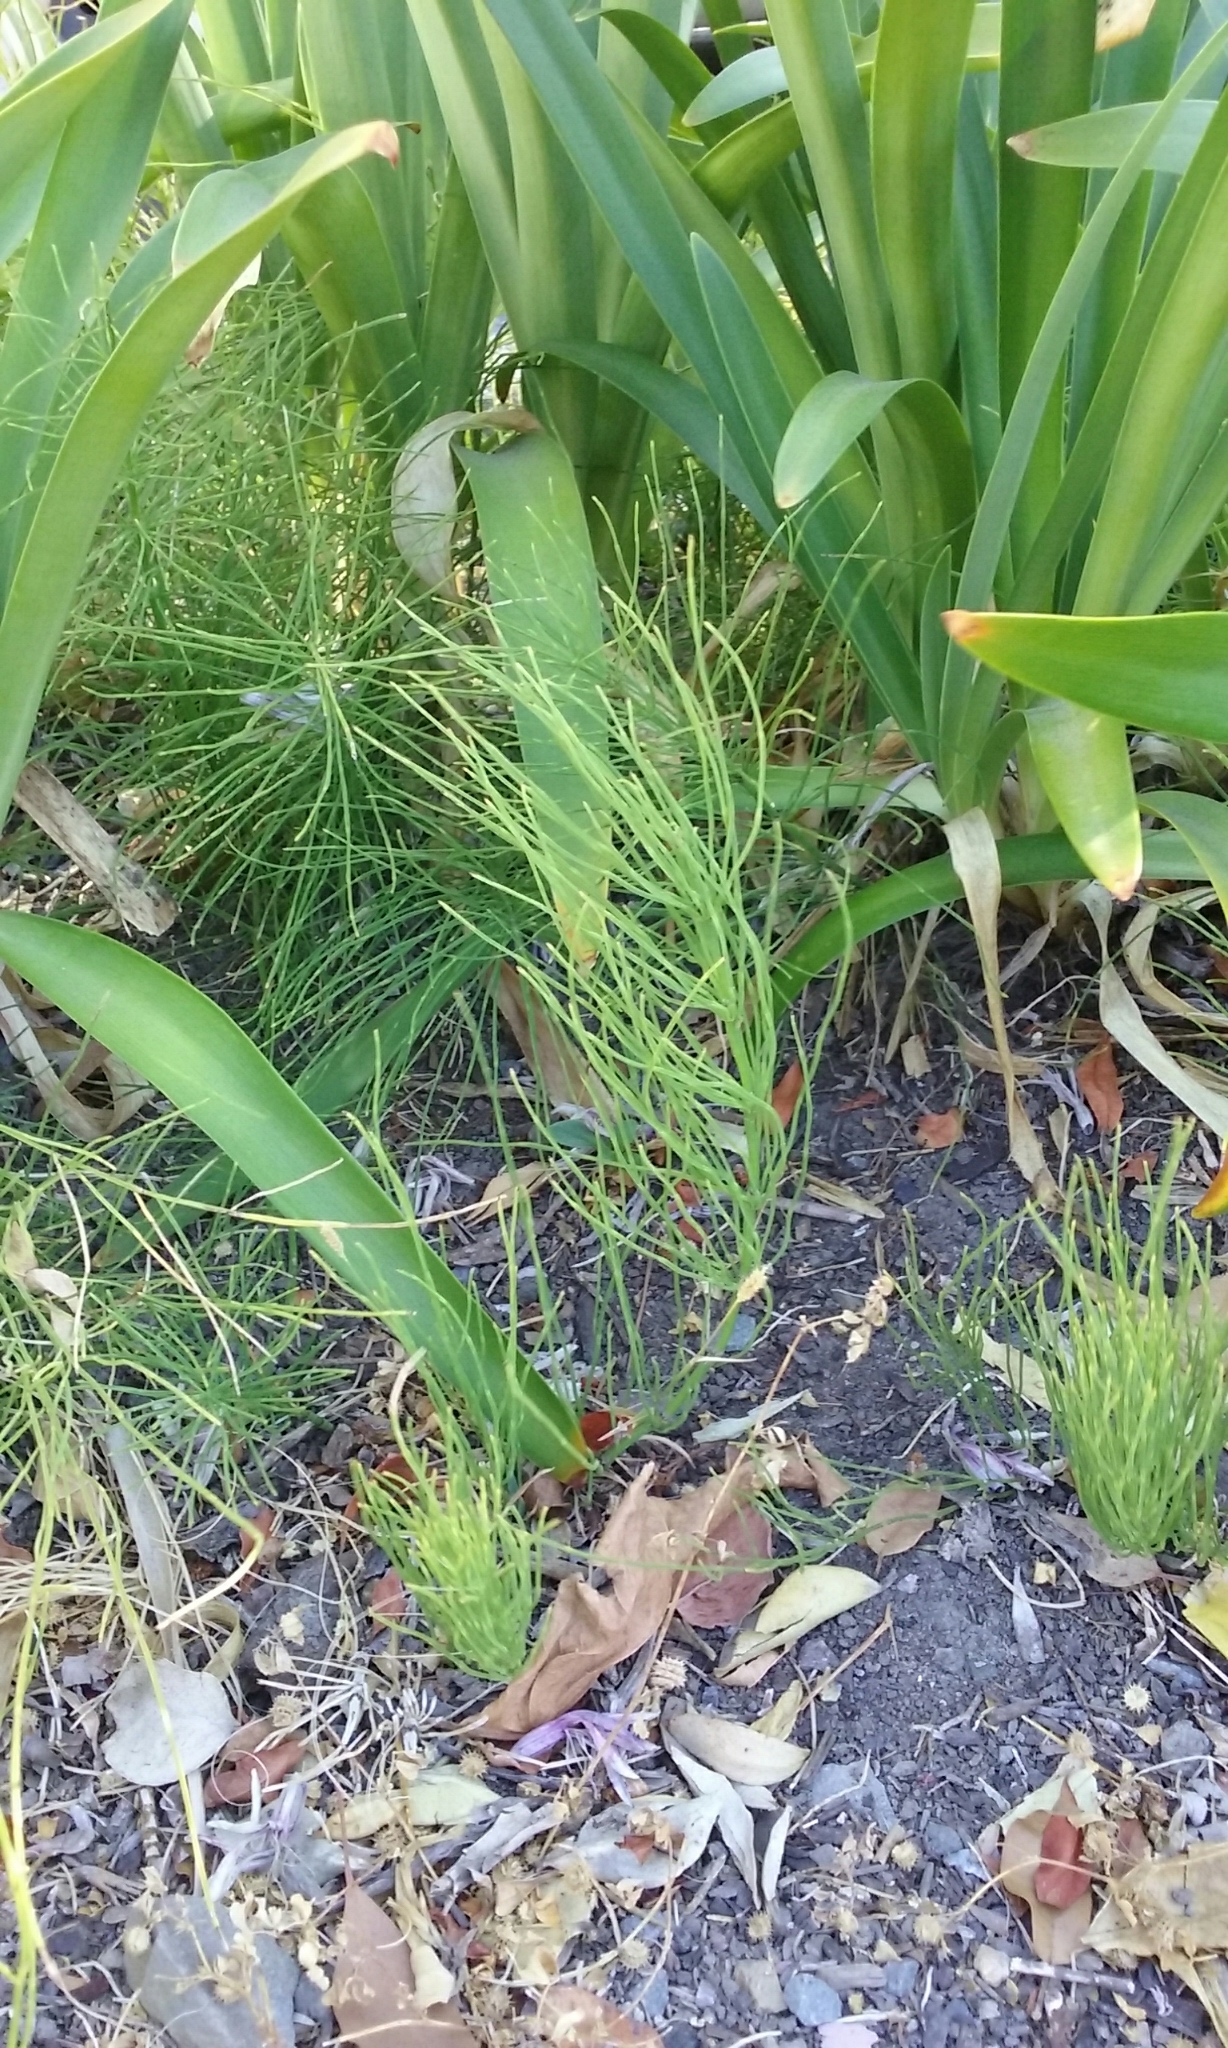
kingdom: Plantae
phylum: Tracheophyta
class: Polypodiopsida
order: Equisetales
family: Equisetaceae
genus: Equisetum
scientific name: Equisetum arvense
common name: Field horsetail
